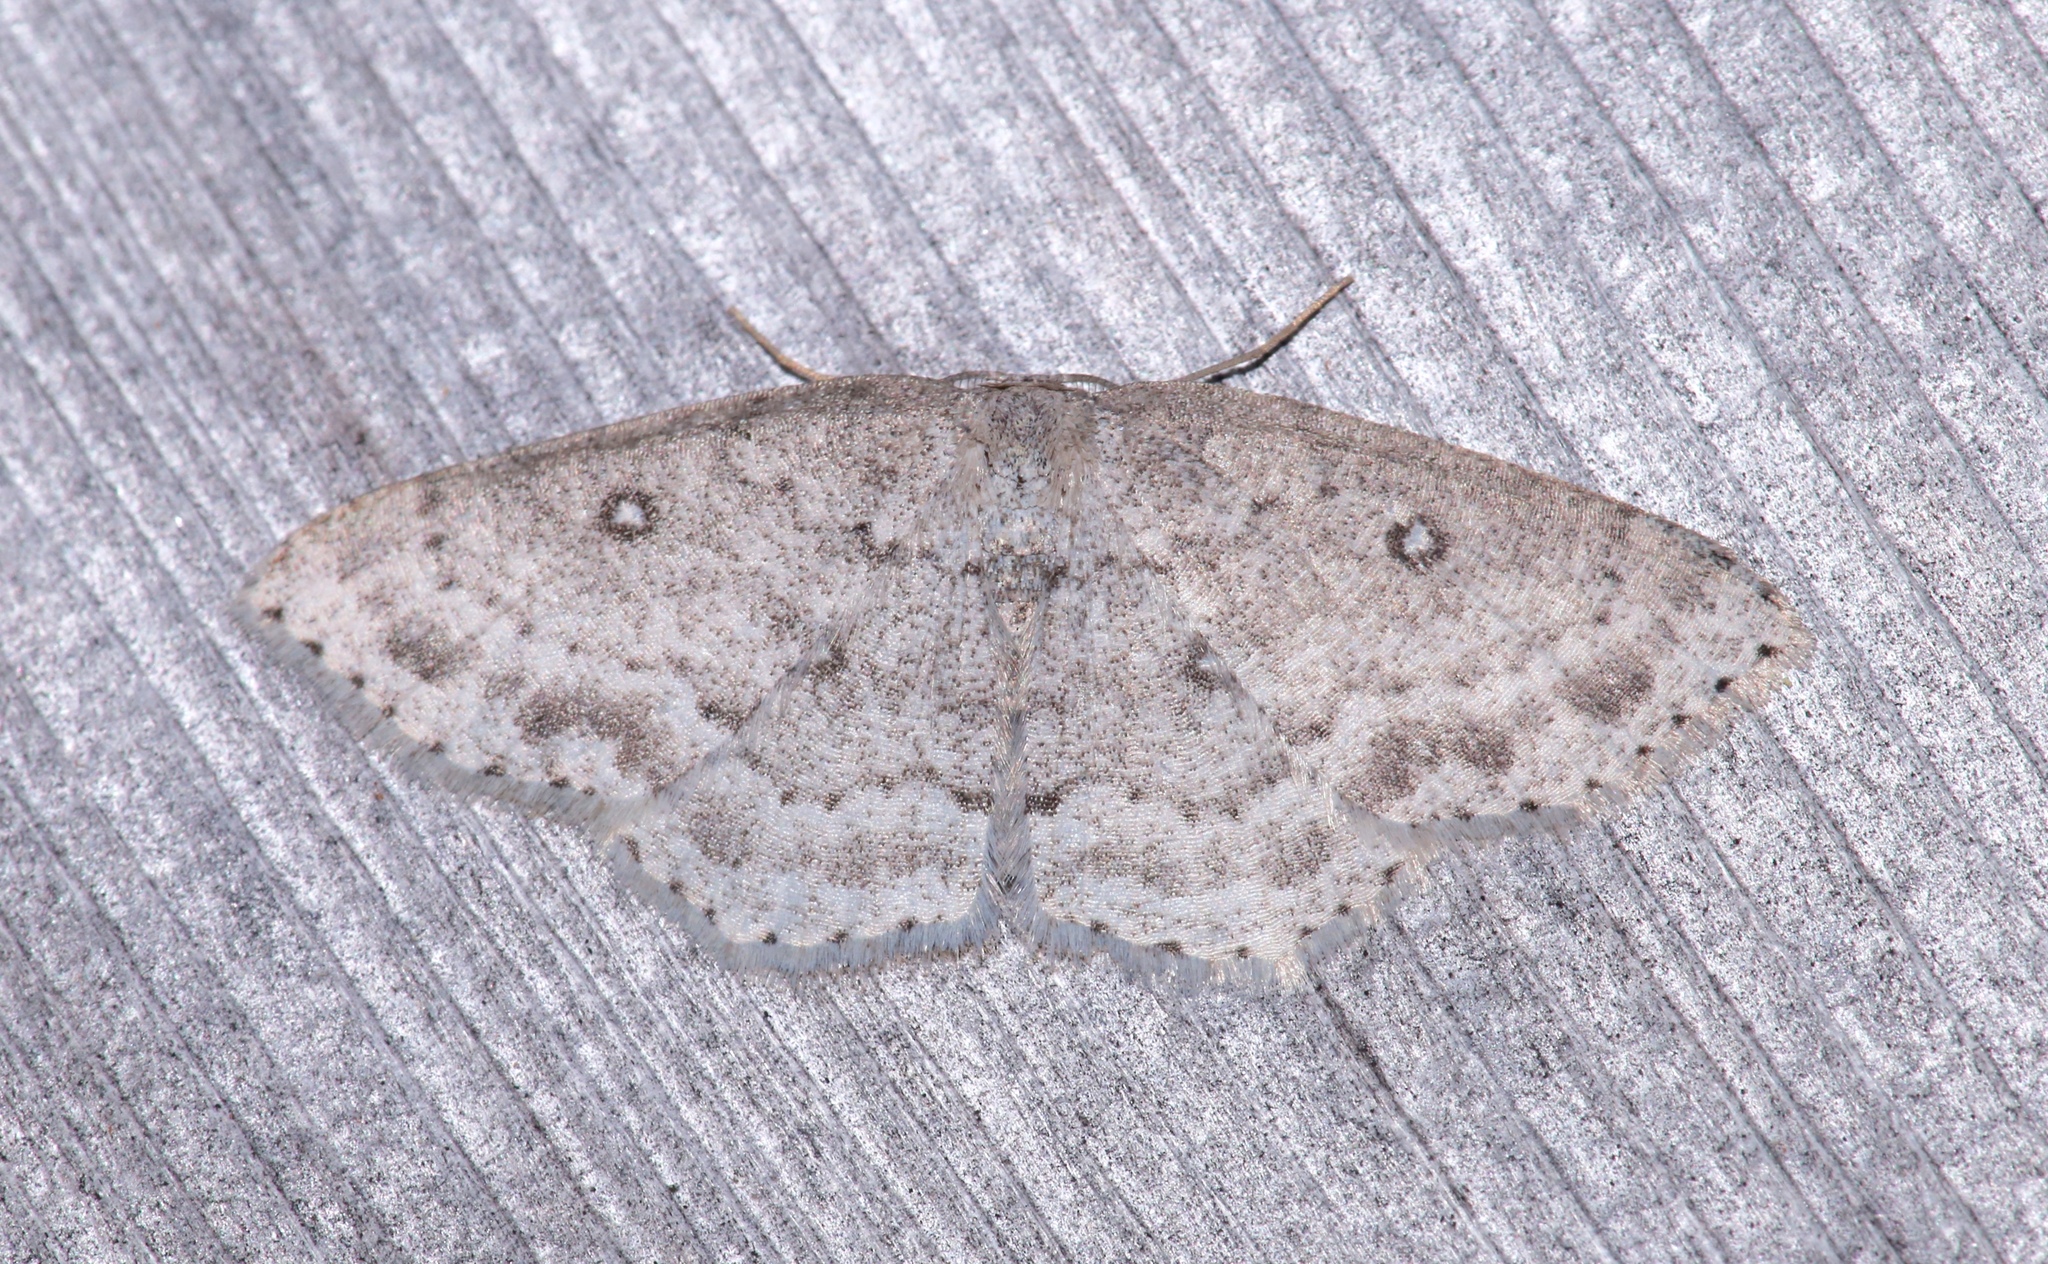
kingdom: Animalia
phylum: Arthropoda
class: Insecta
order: Lepidoptera
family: Geometridae
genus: Cyclophora
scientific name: Cyclophora pendulinaria
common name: Sweet fern geometer
